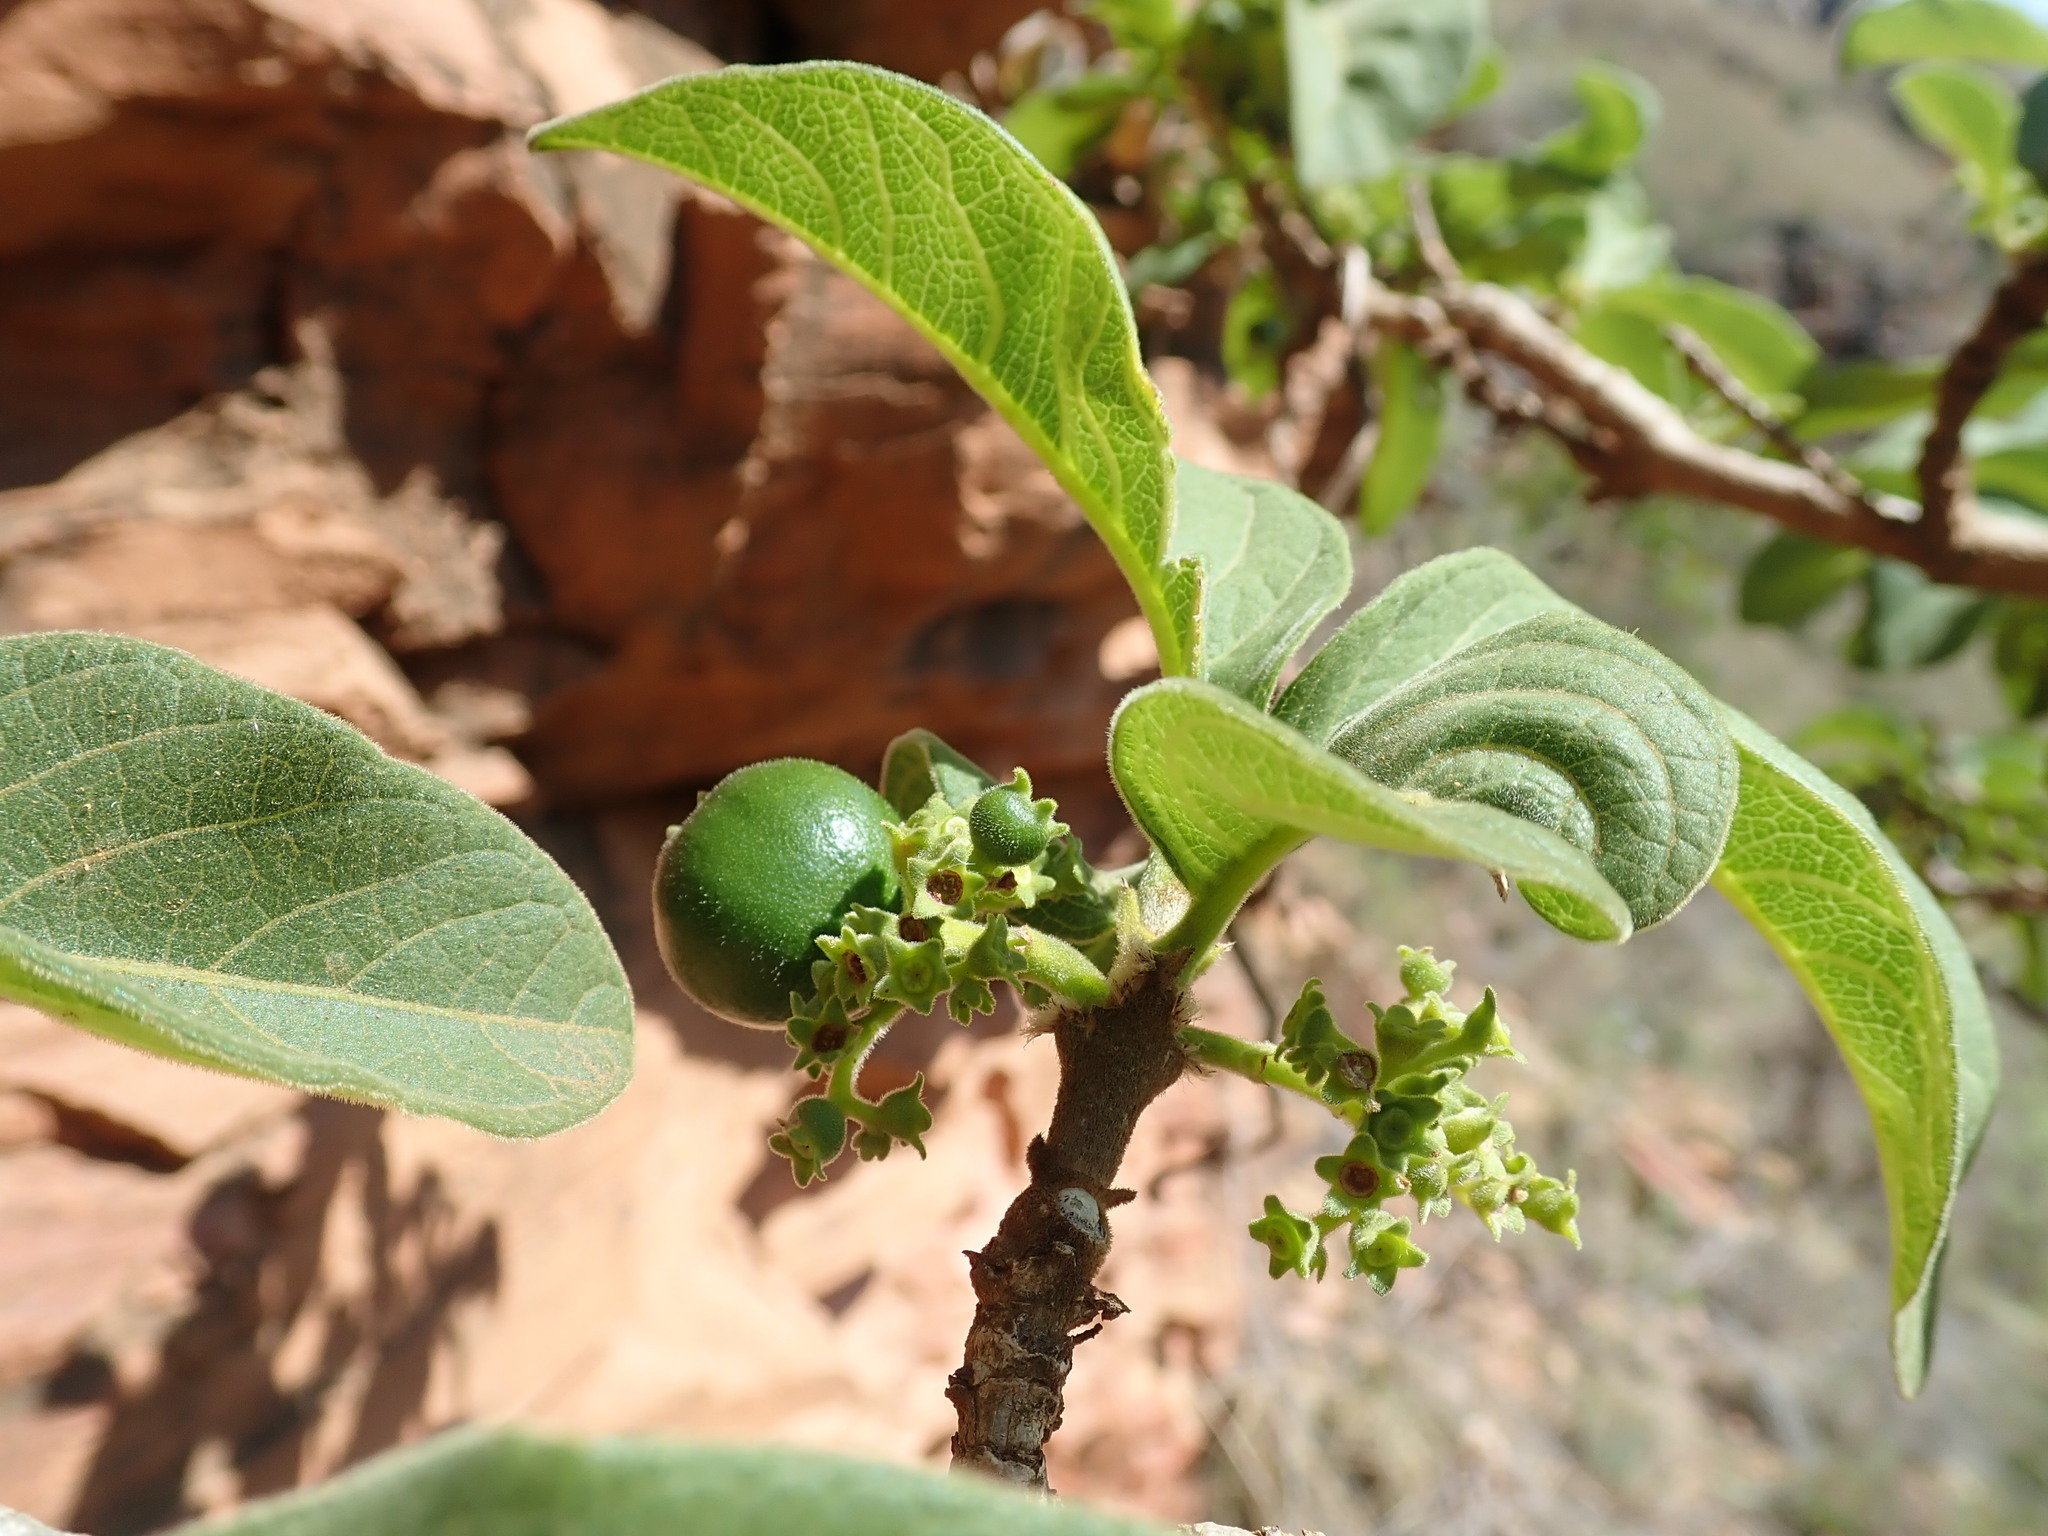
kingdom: Plantae
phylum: Tracheophyta
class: Magnoliopsida
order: Gentianales
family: Rubiaceae
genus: Vangueria
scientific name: Vangueria infausta
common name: Medlar
